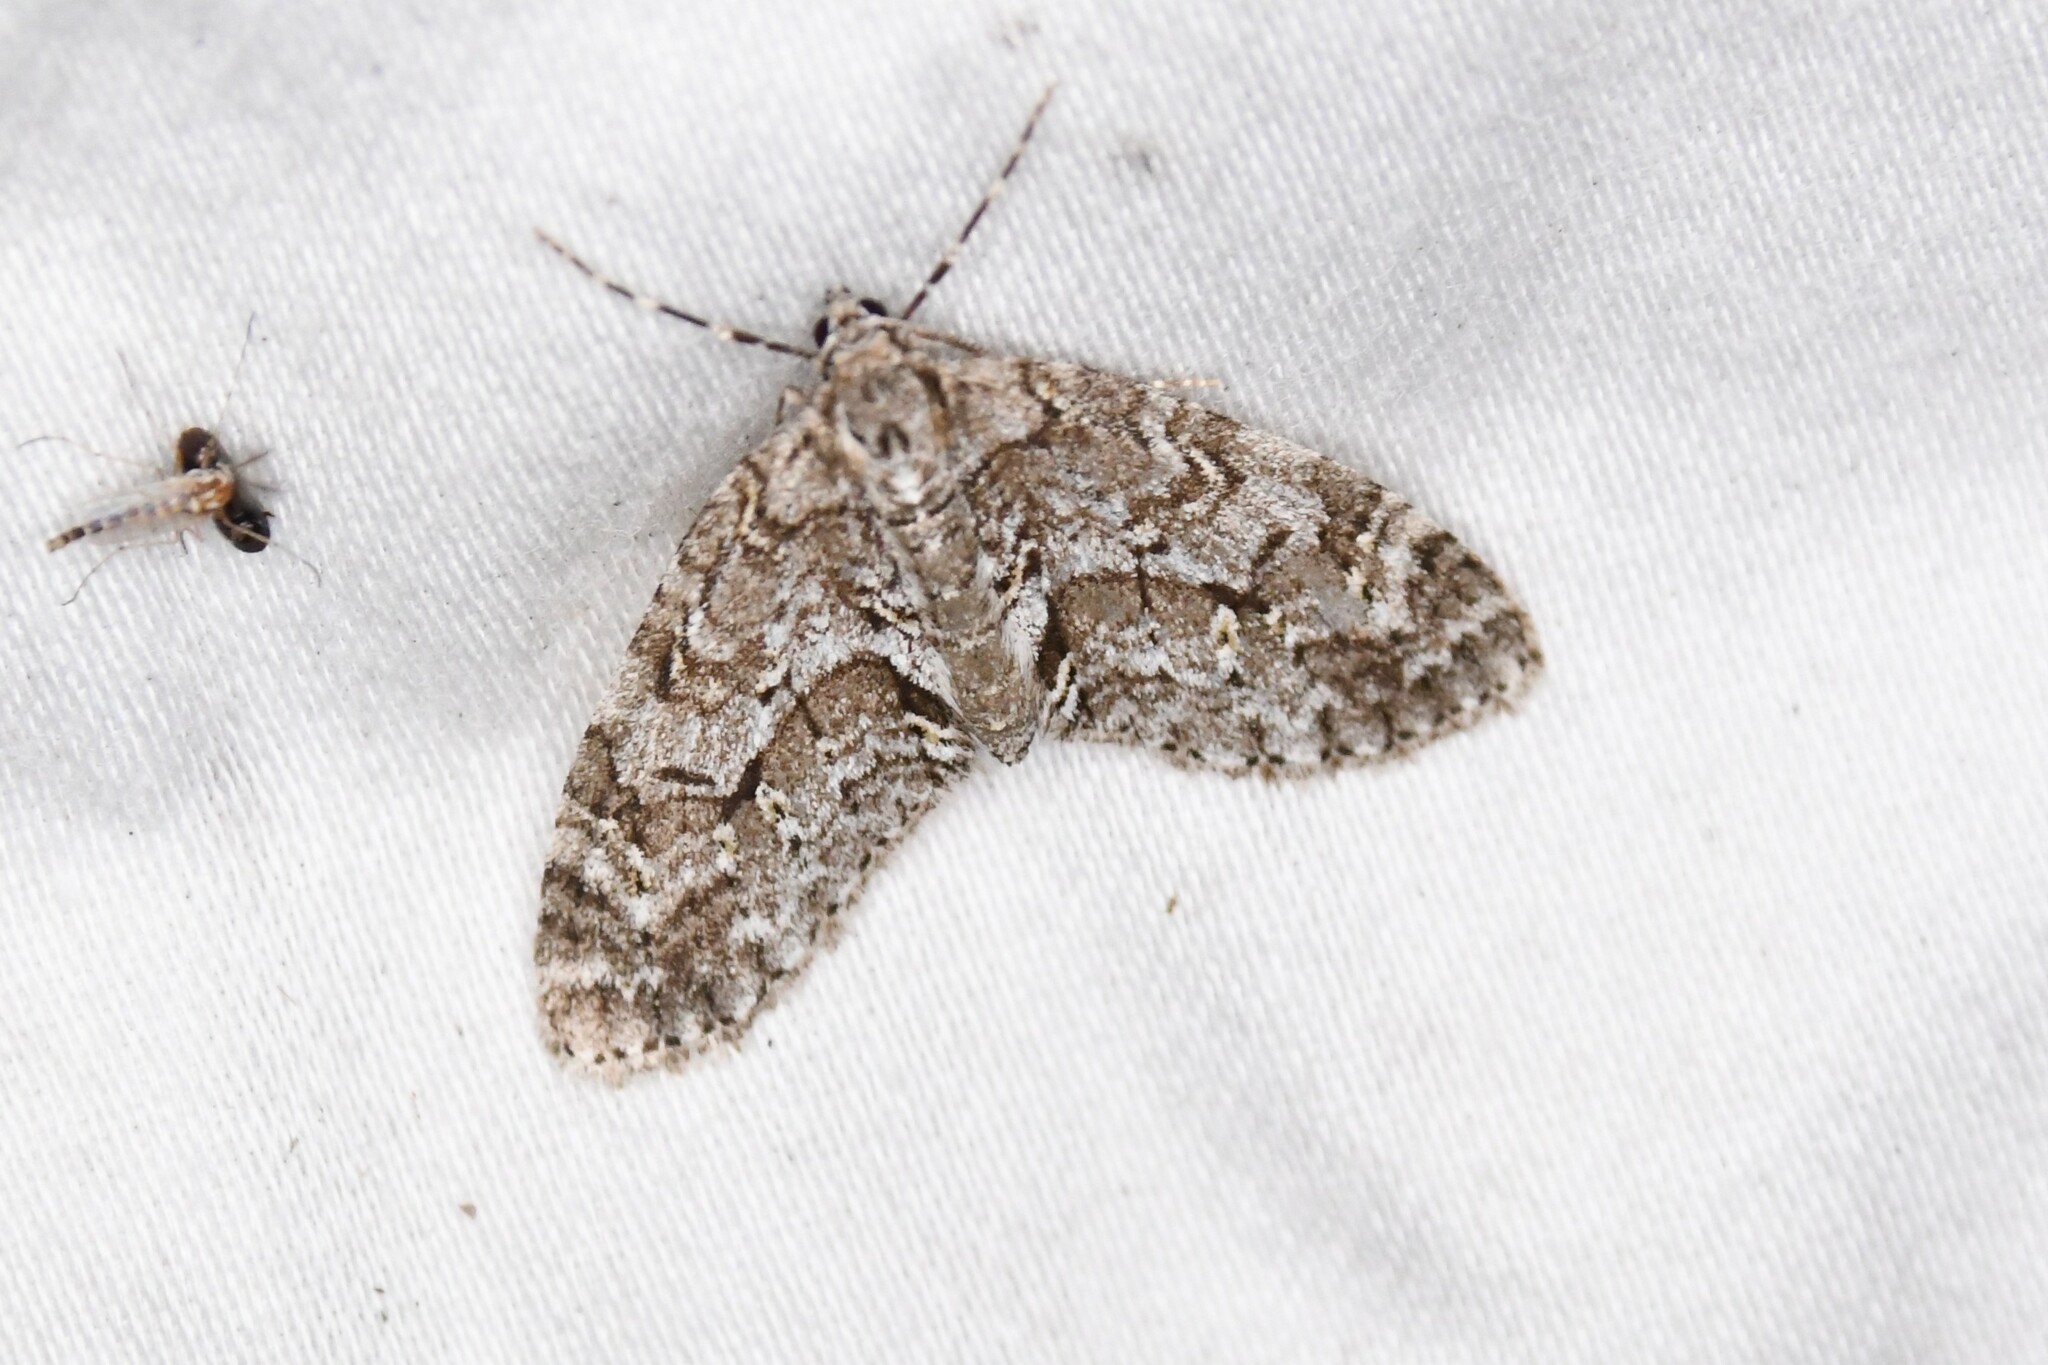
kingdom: Animalia
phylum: Arthropoda
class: Insecta
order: Lepidoptera
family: Geometridae
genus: Cladara
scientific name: Cladara limitaria
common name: Mottled gray carpet
